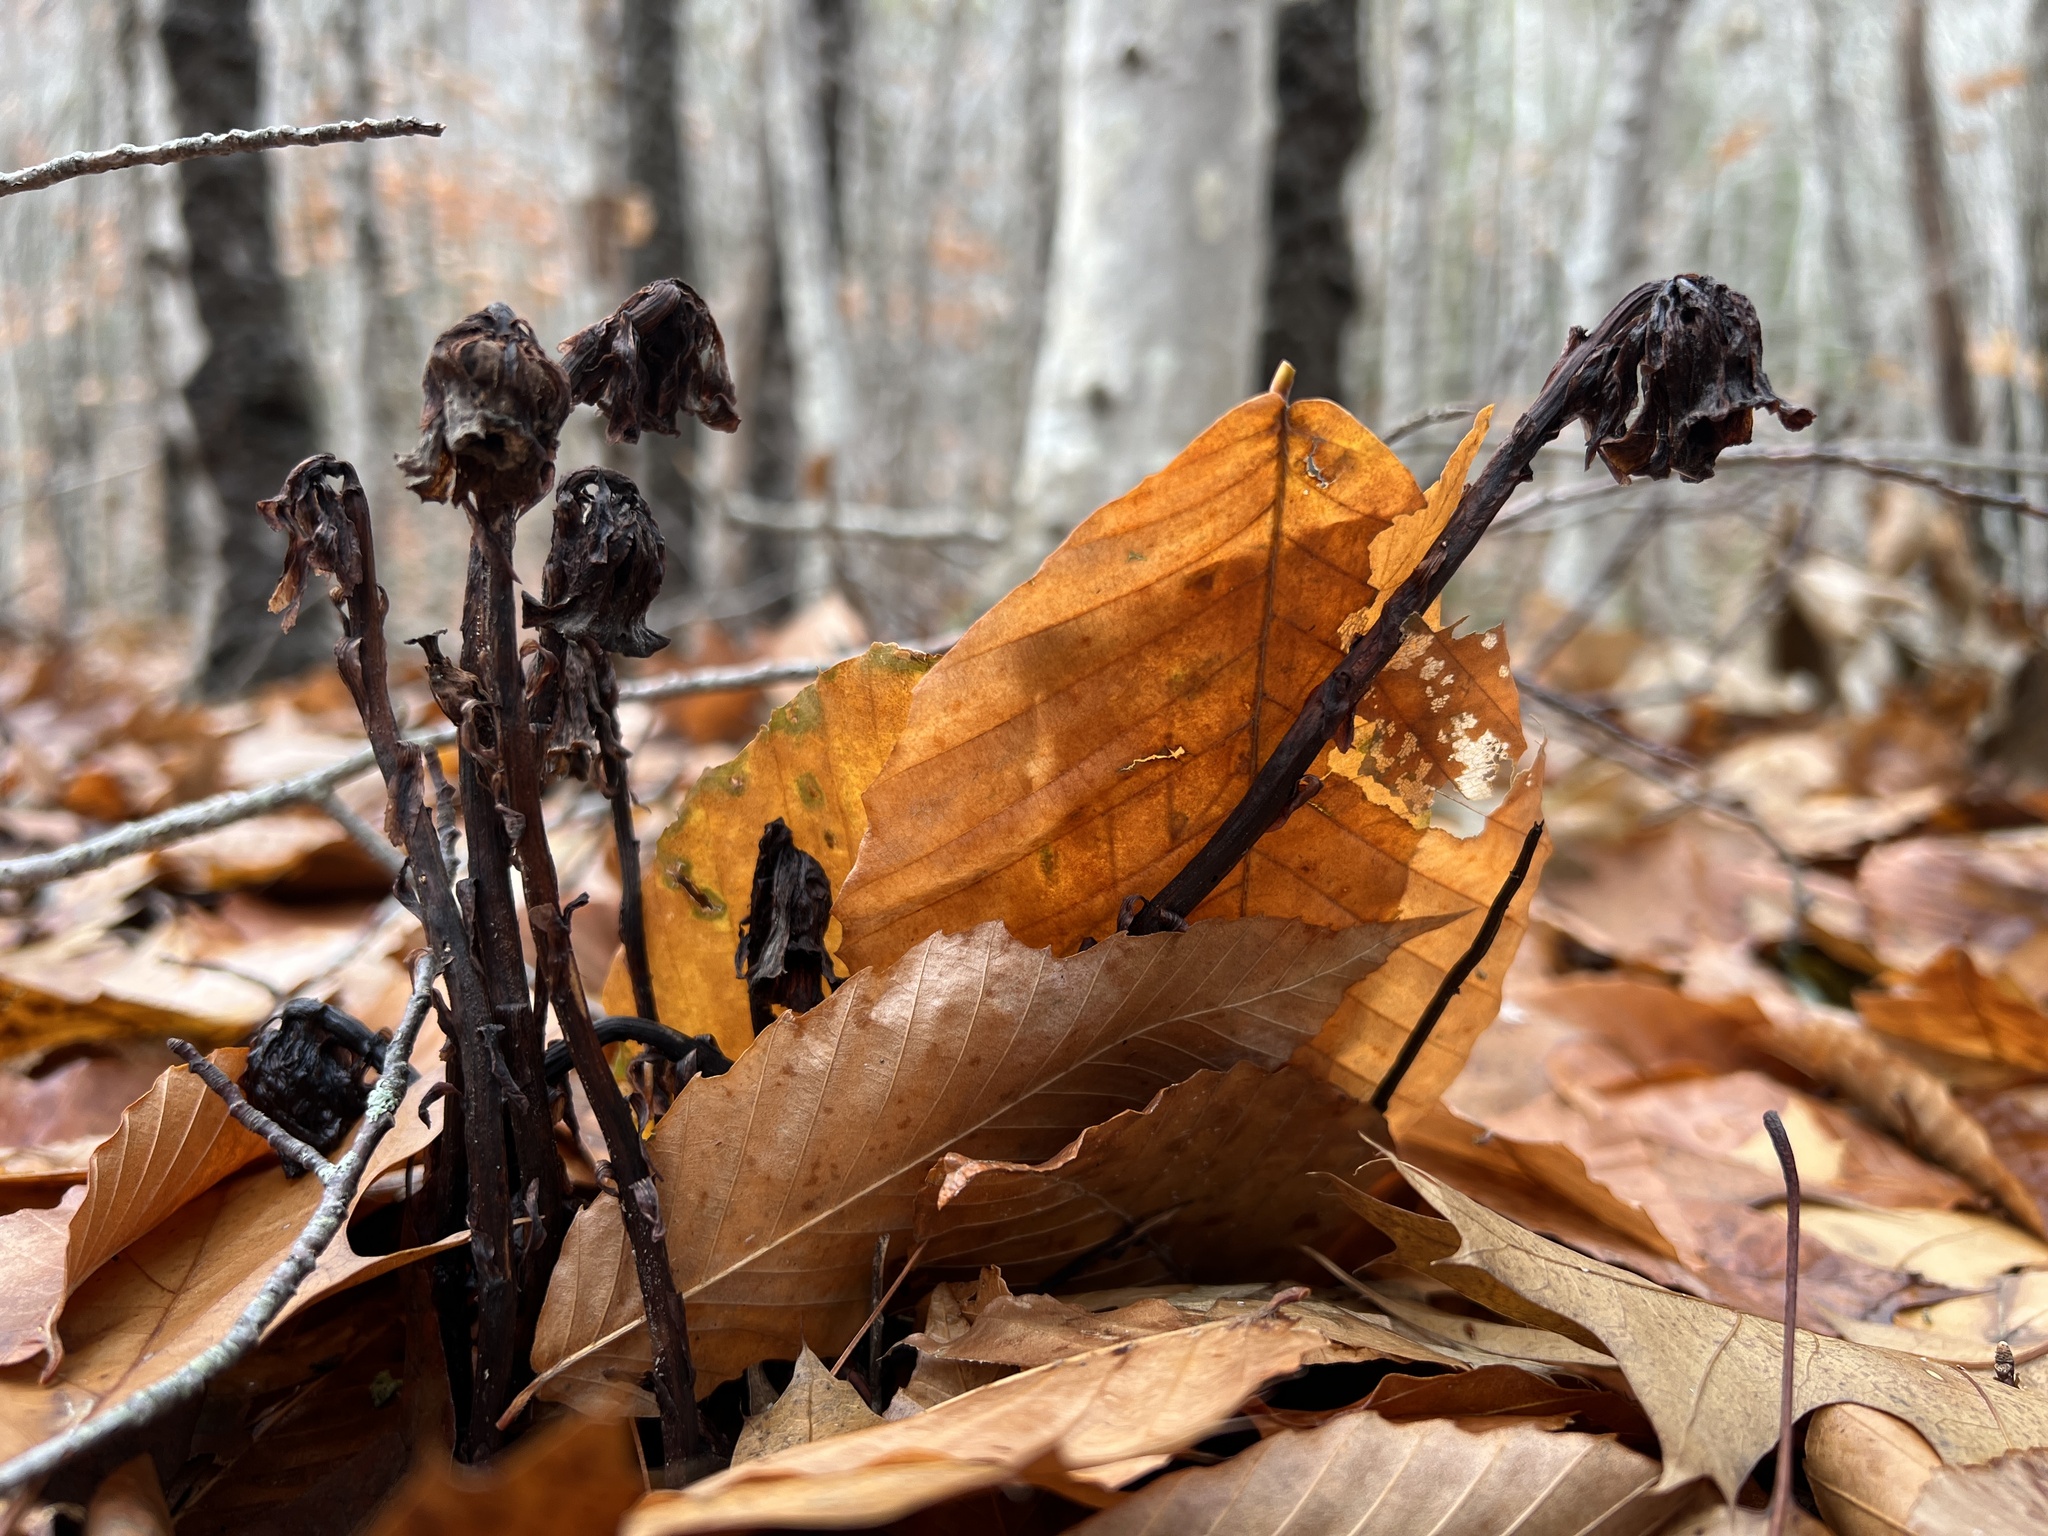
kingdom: Plantae
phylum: Tracheophyta
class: Magnoliopsida
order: Ericales
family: Ericaceae
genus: Monotropa
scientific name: Monotropa uniflora
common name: Convulsion root
